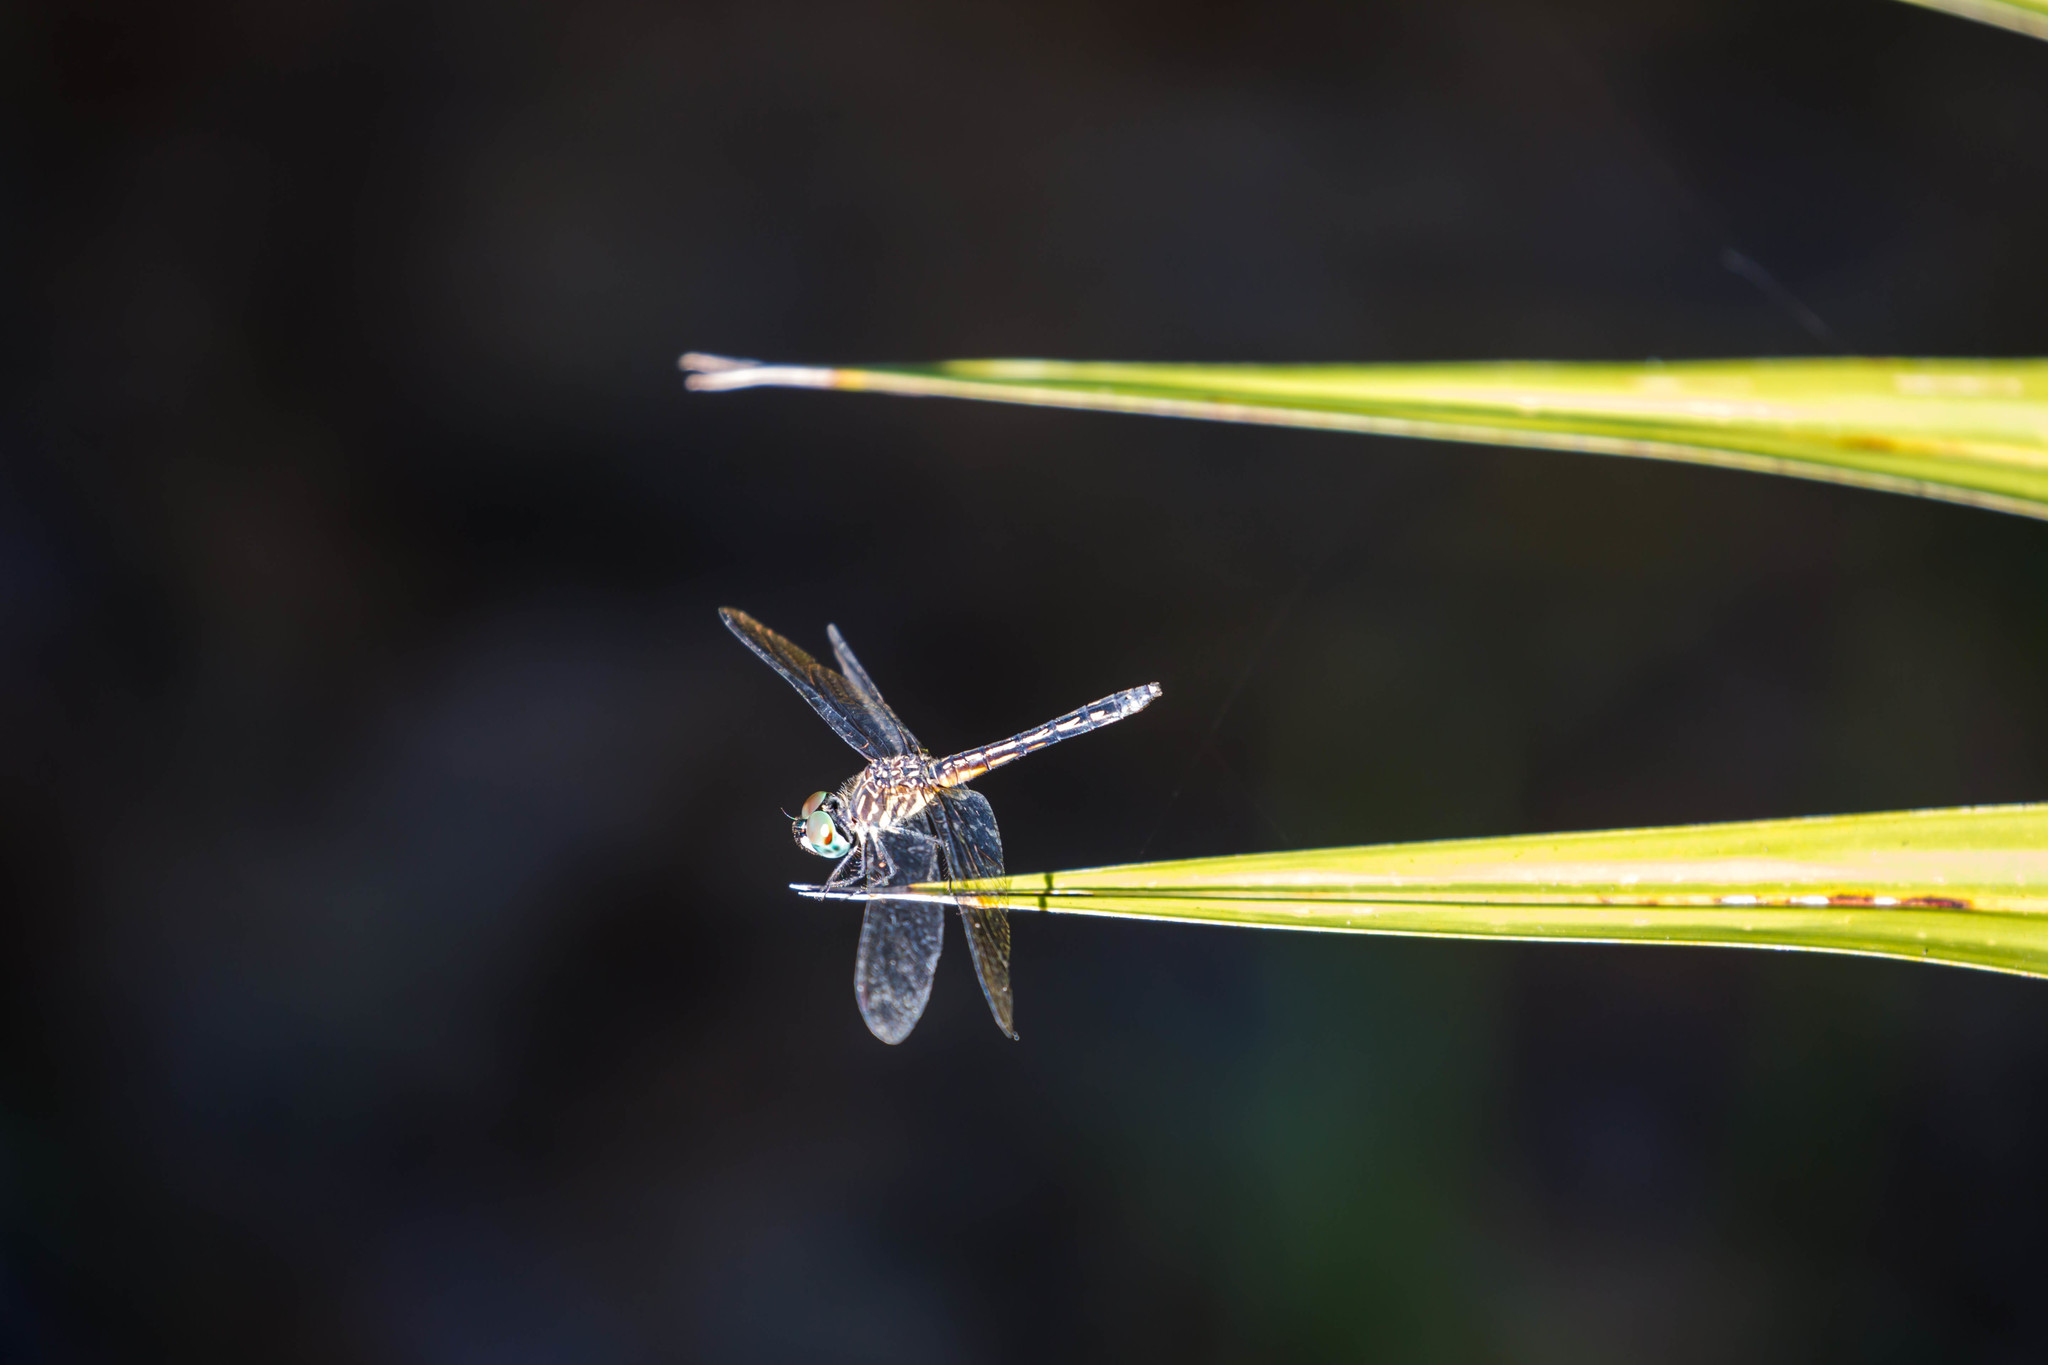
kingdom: Animalia
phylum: Arthropoda
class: Insecta
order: Odonata
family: Libellulidae
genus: Pachydiplax
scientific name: Pachydiplax longipennis
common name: Blue dasher
